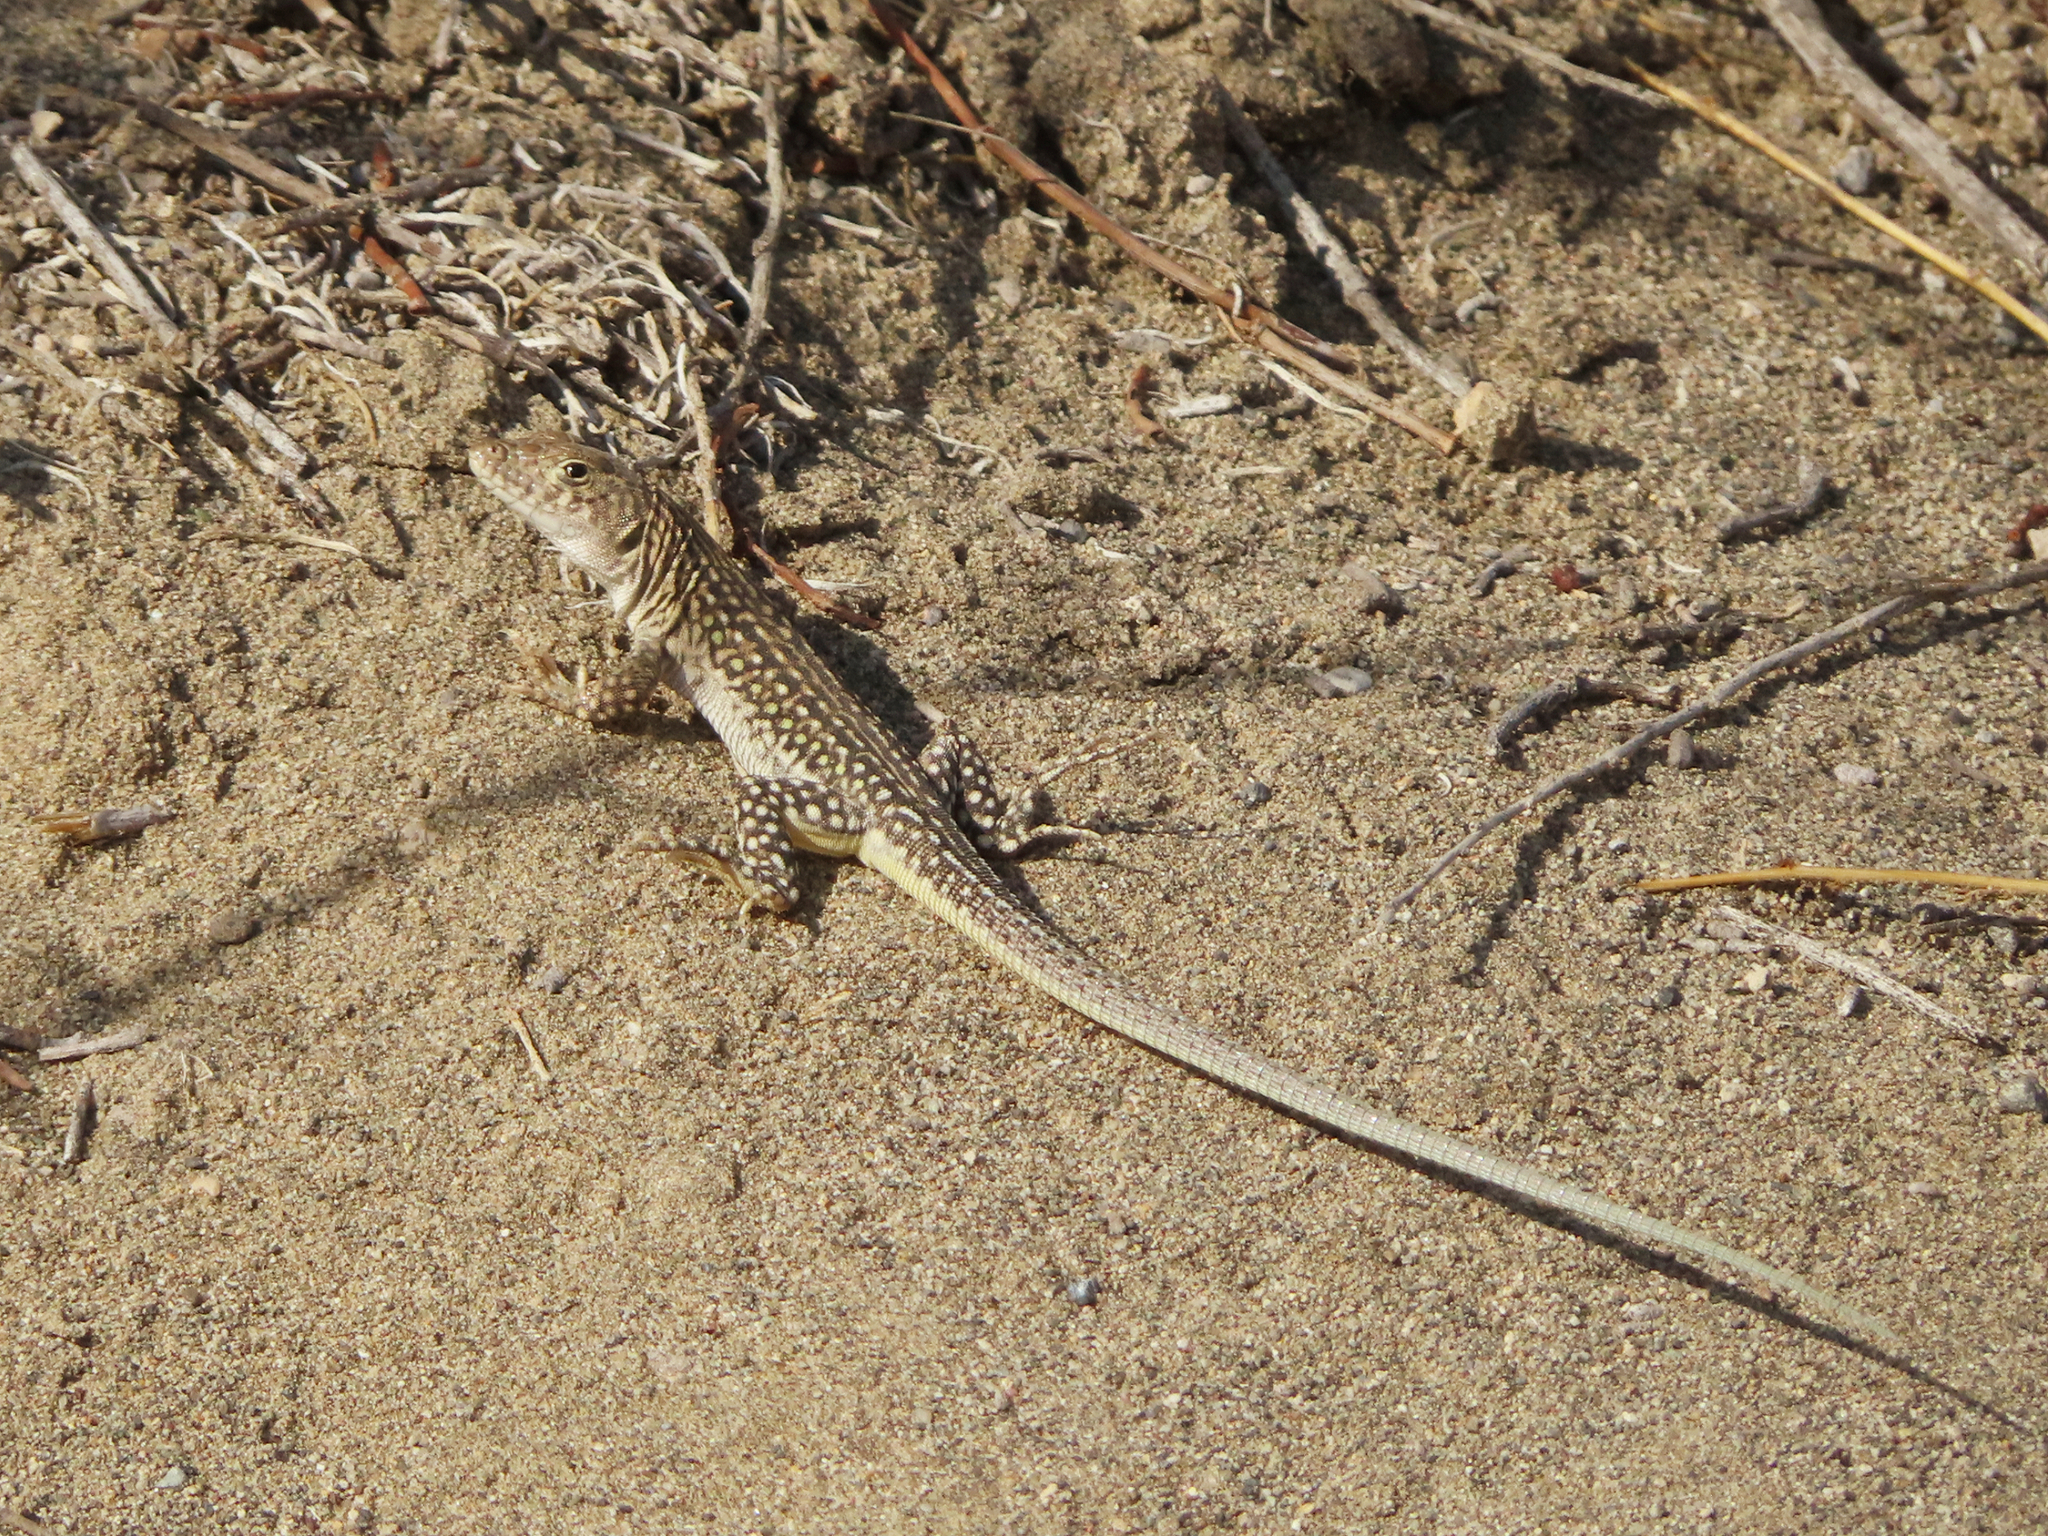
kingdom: Animalia
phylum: Chordata
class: Squamata
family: Lacertidae
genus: Eremias
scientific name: Eremias strauchi
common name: Strauch's racerunner
